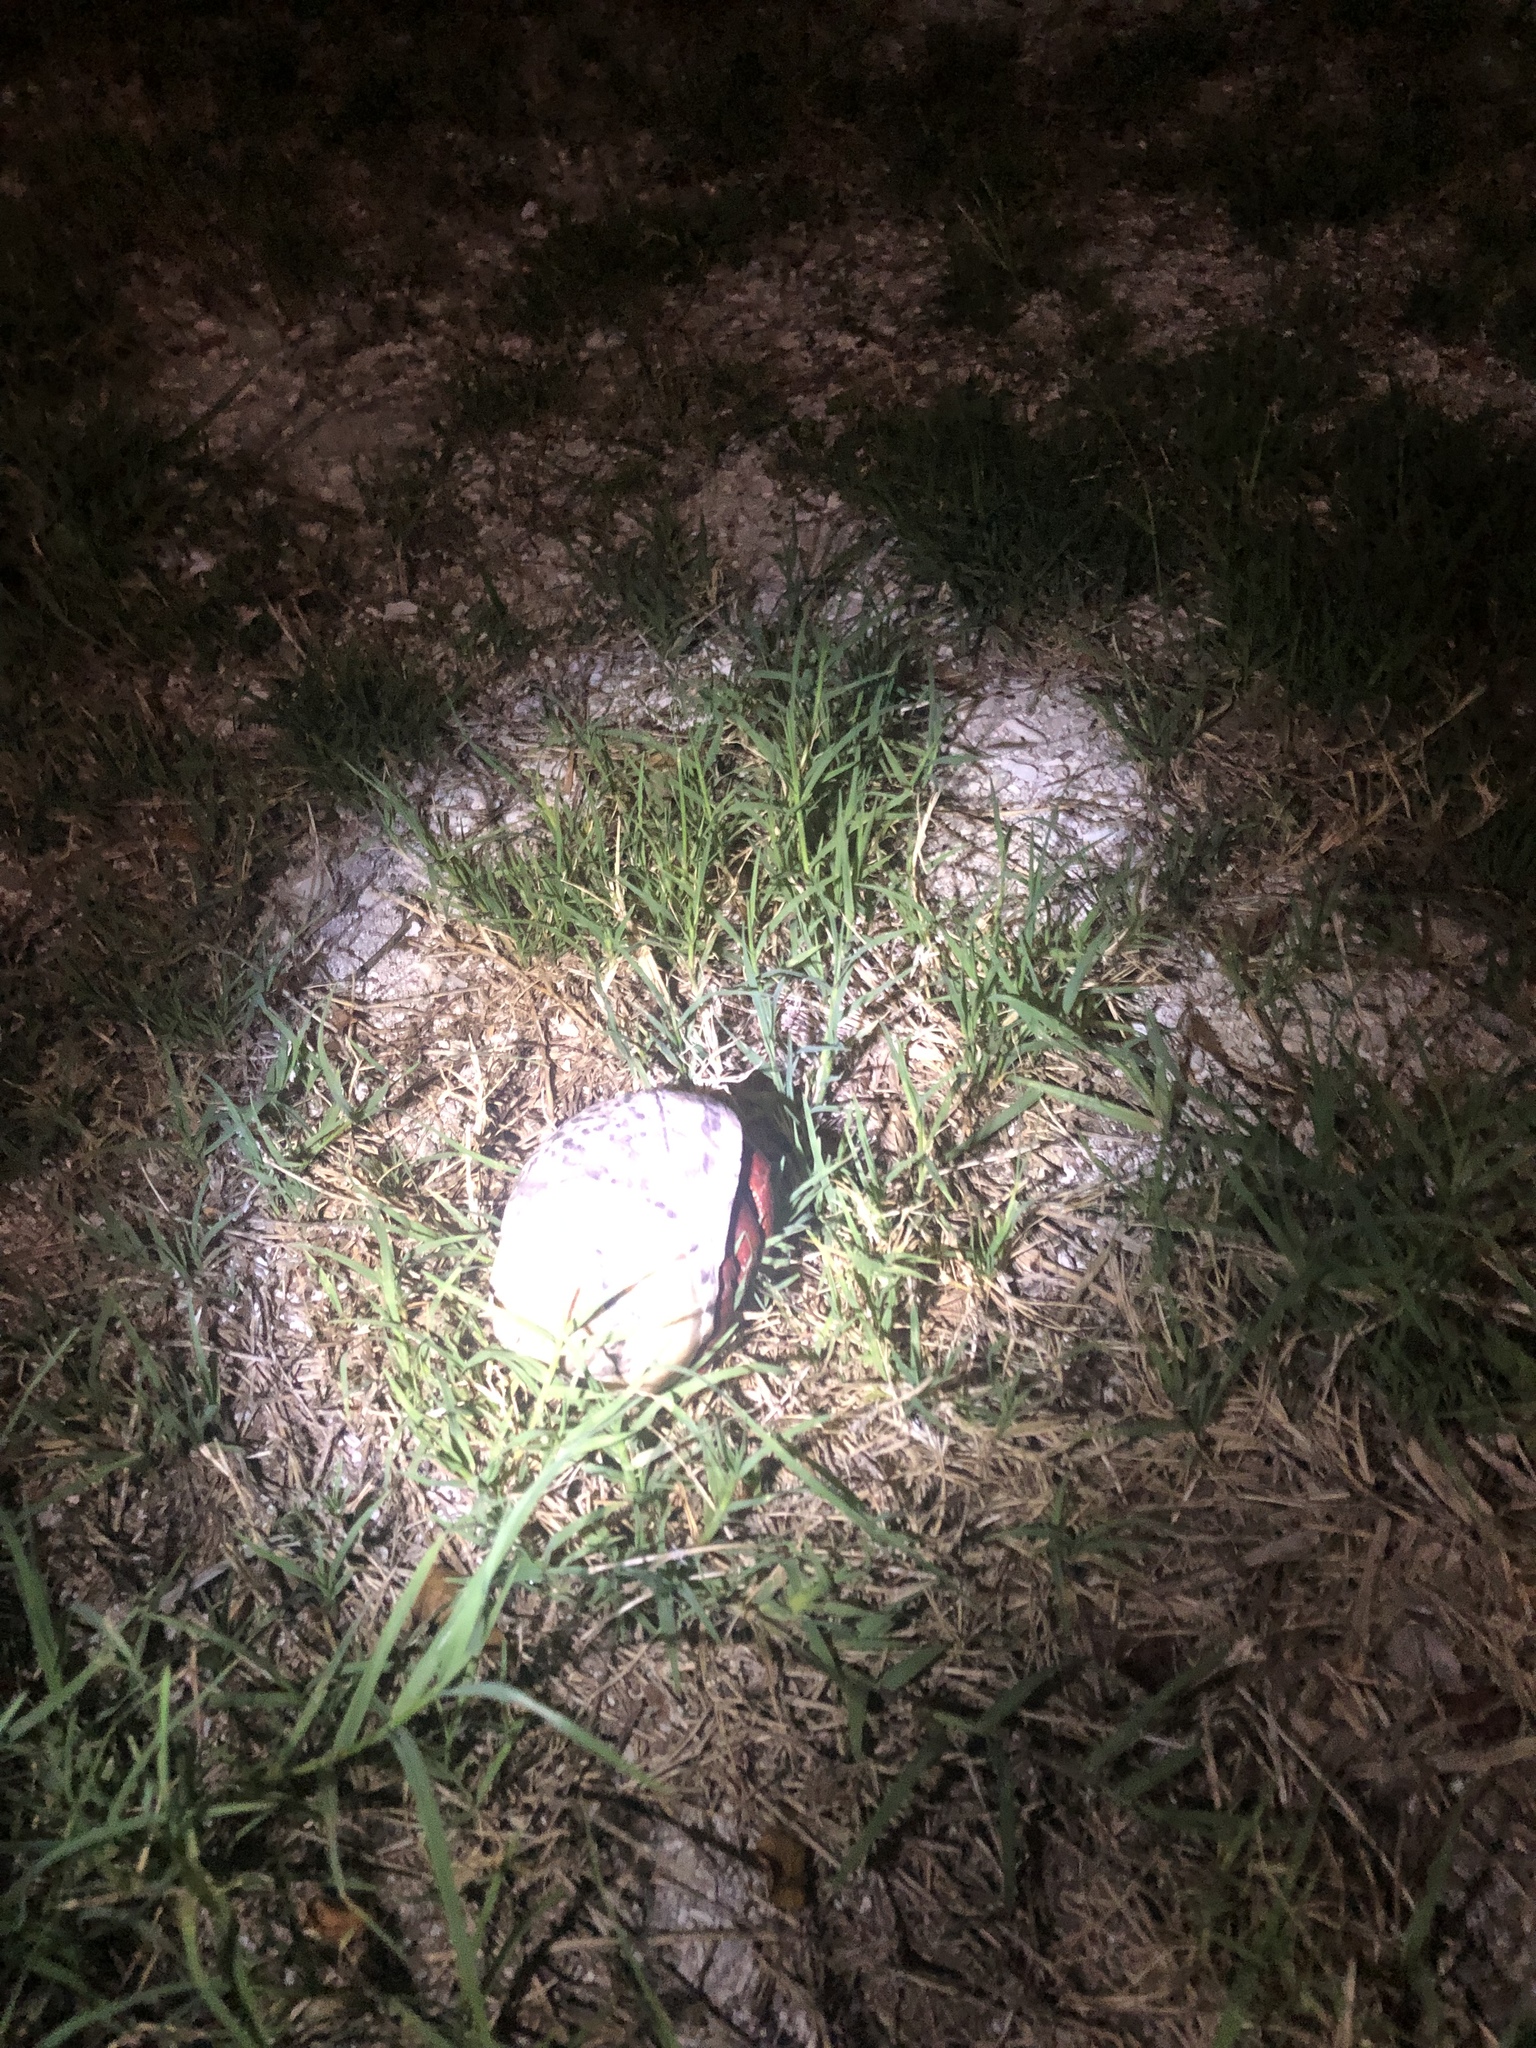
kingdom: Animalia
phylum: Arthropoda
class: Malacostraca
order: Decapoda
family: Coenobitidae
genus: Coenobita
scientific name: Coenobita clypeatus
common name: Caribbean hermit crab
